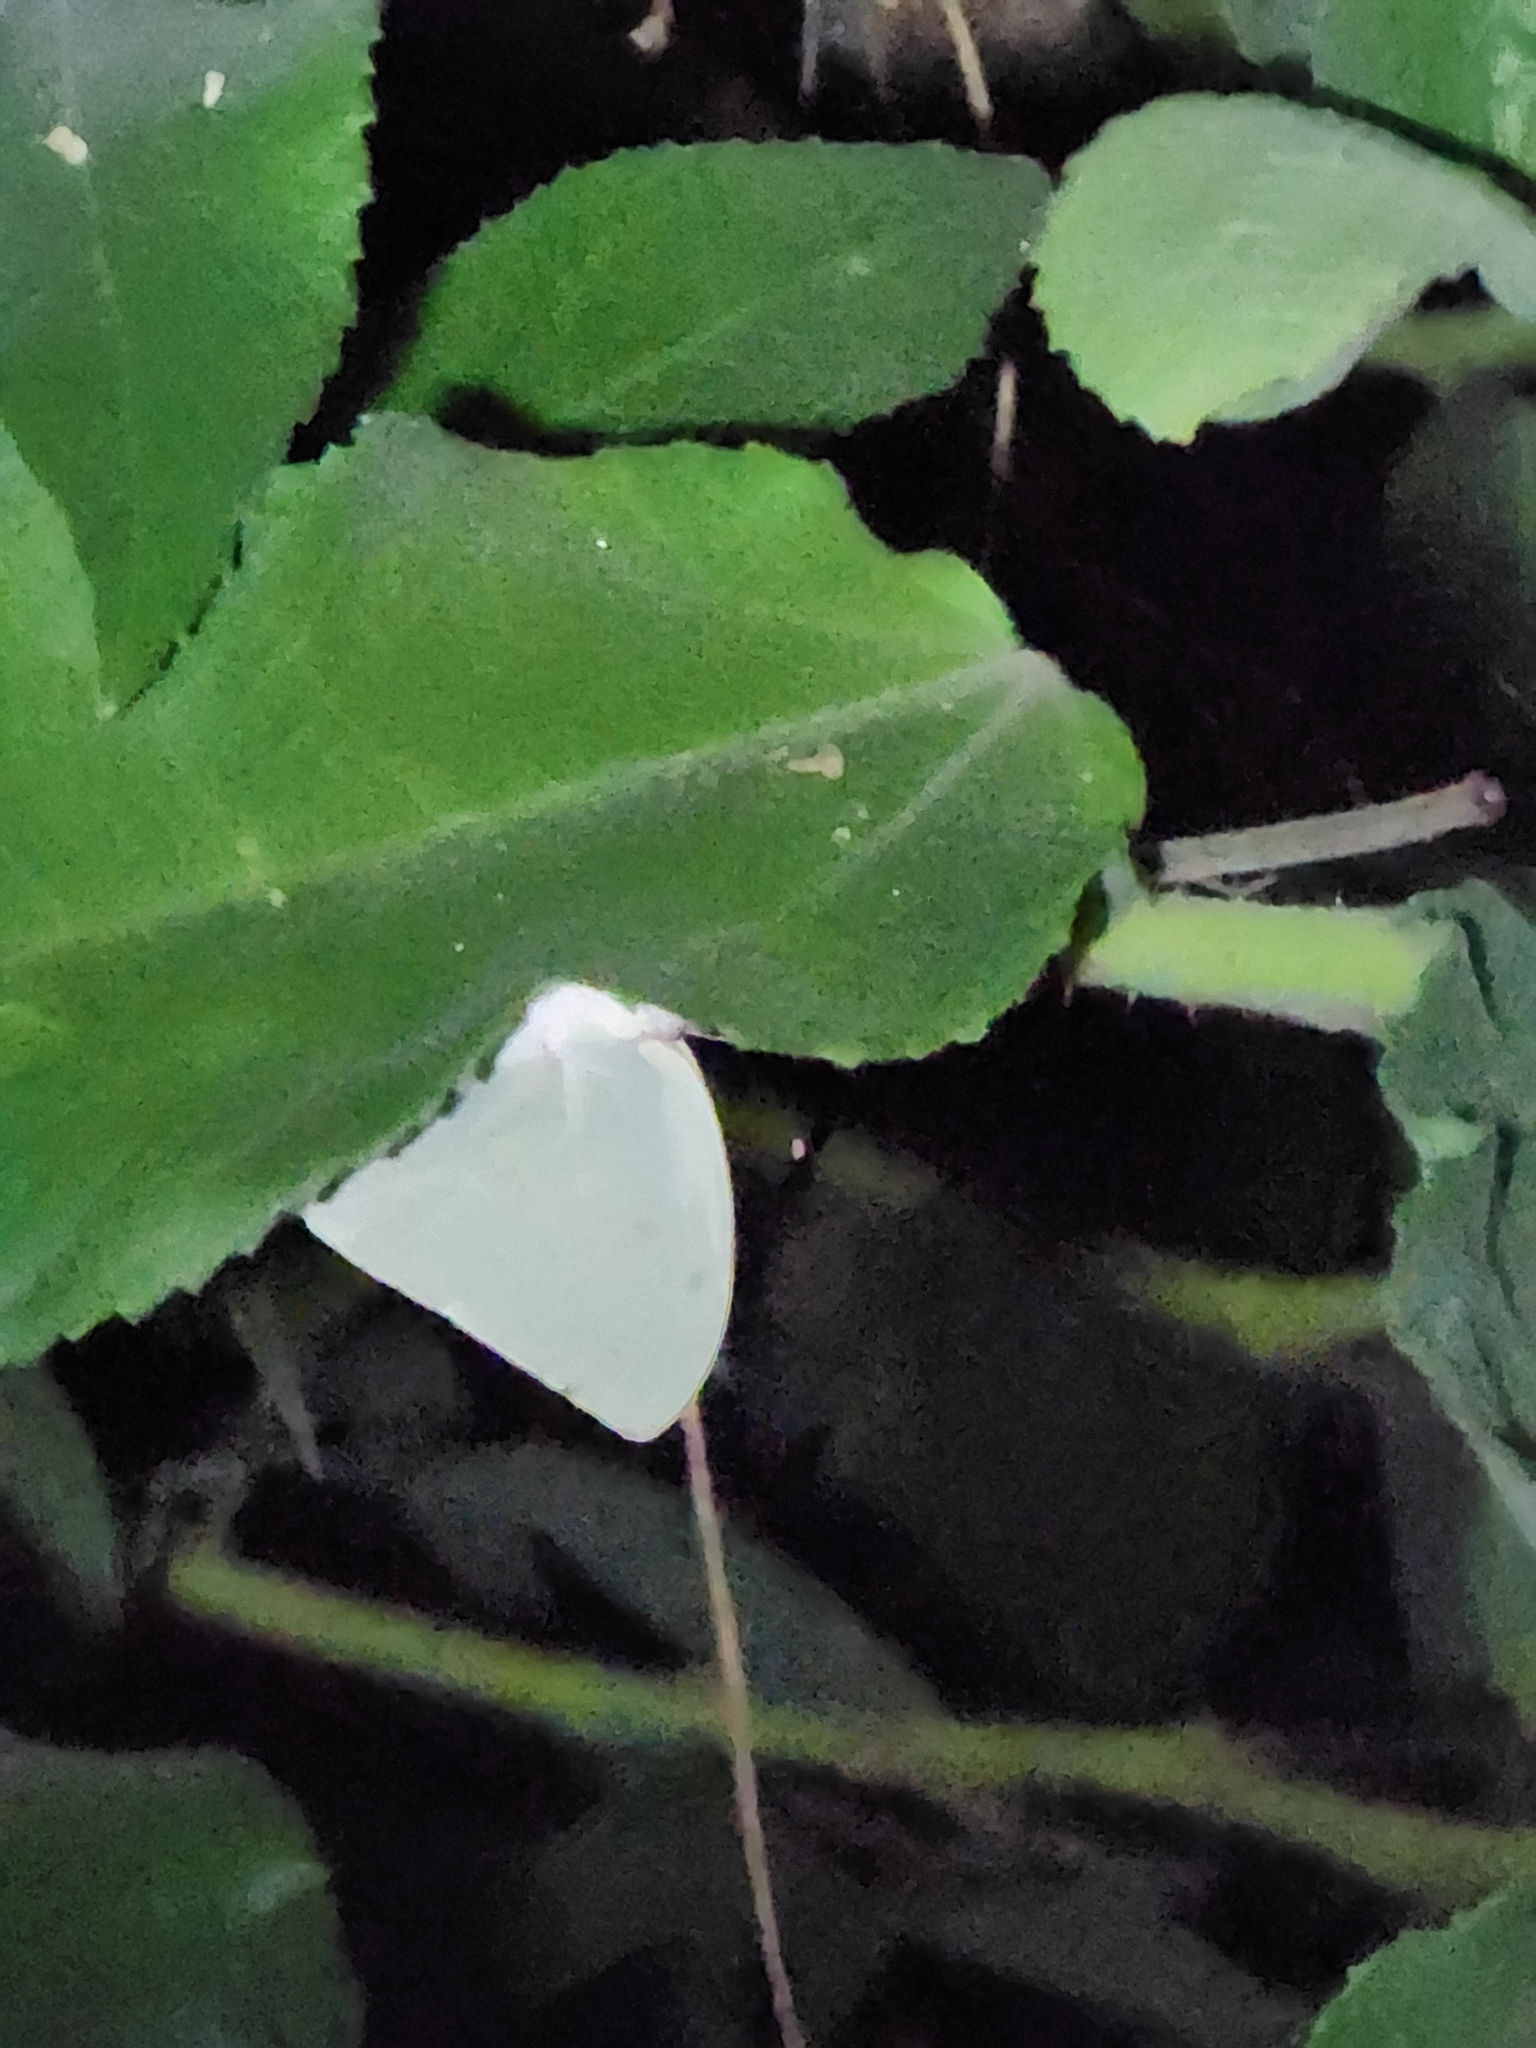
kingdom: Animalia
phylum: Arthropoda
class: Insecta
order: Lepidoptera
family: Pieridae
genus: Catopsilia
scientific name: Catopsilia pomona
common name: Common emigrant
